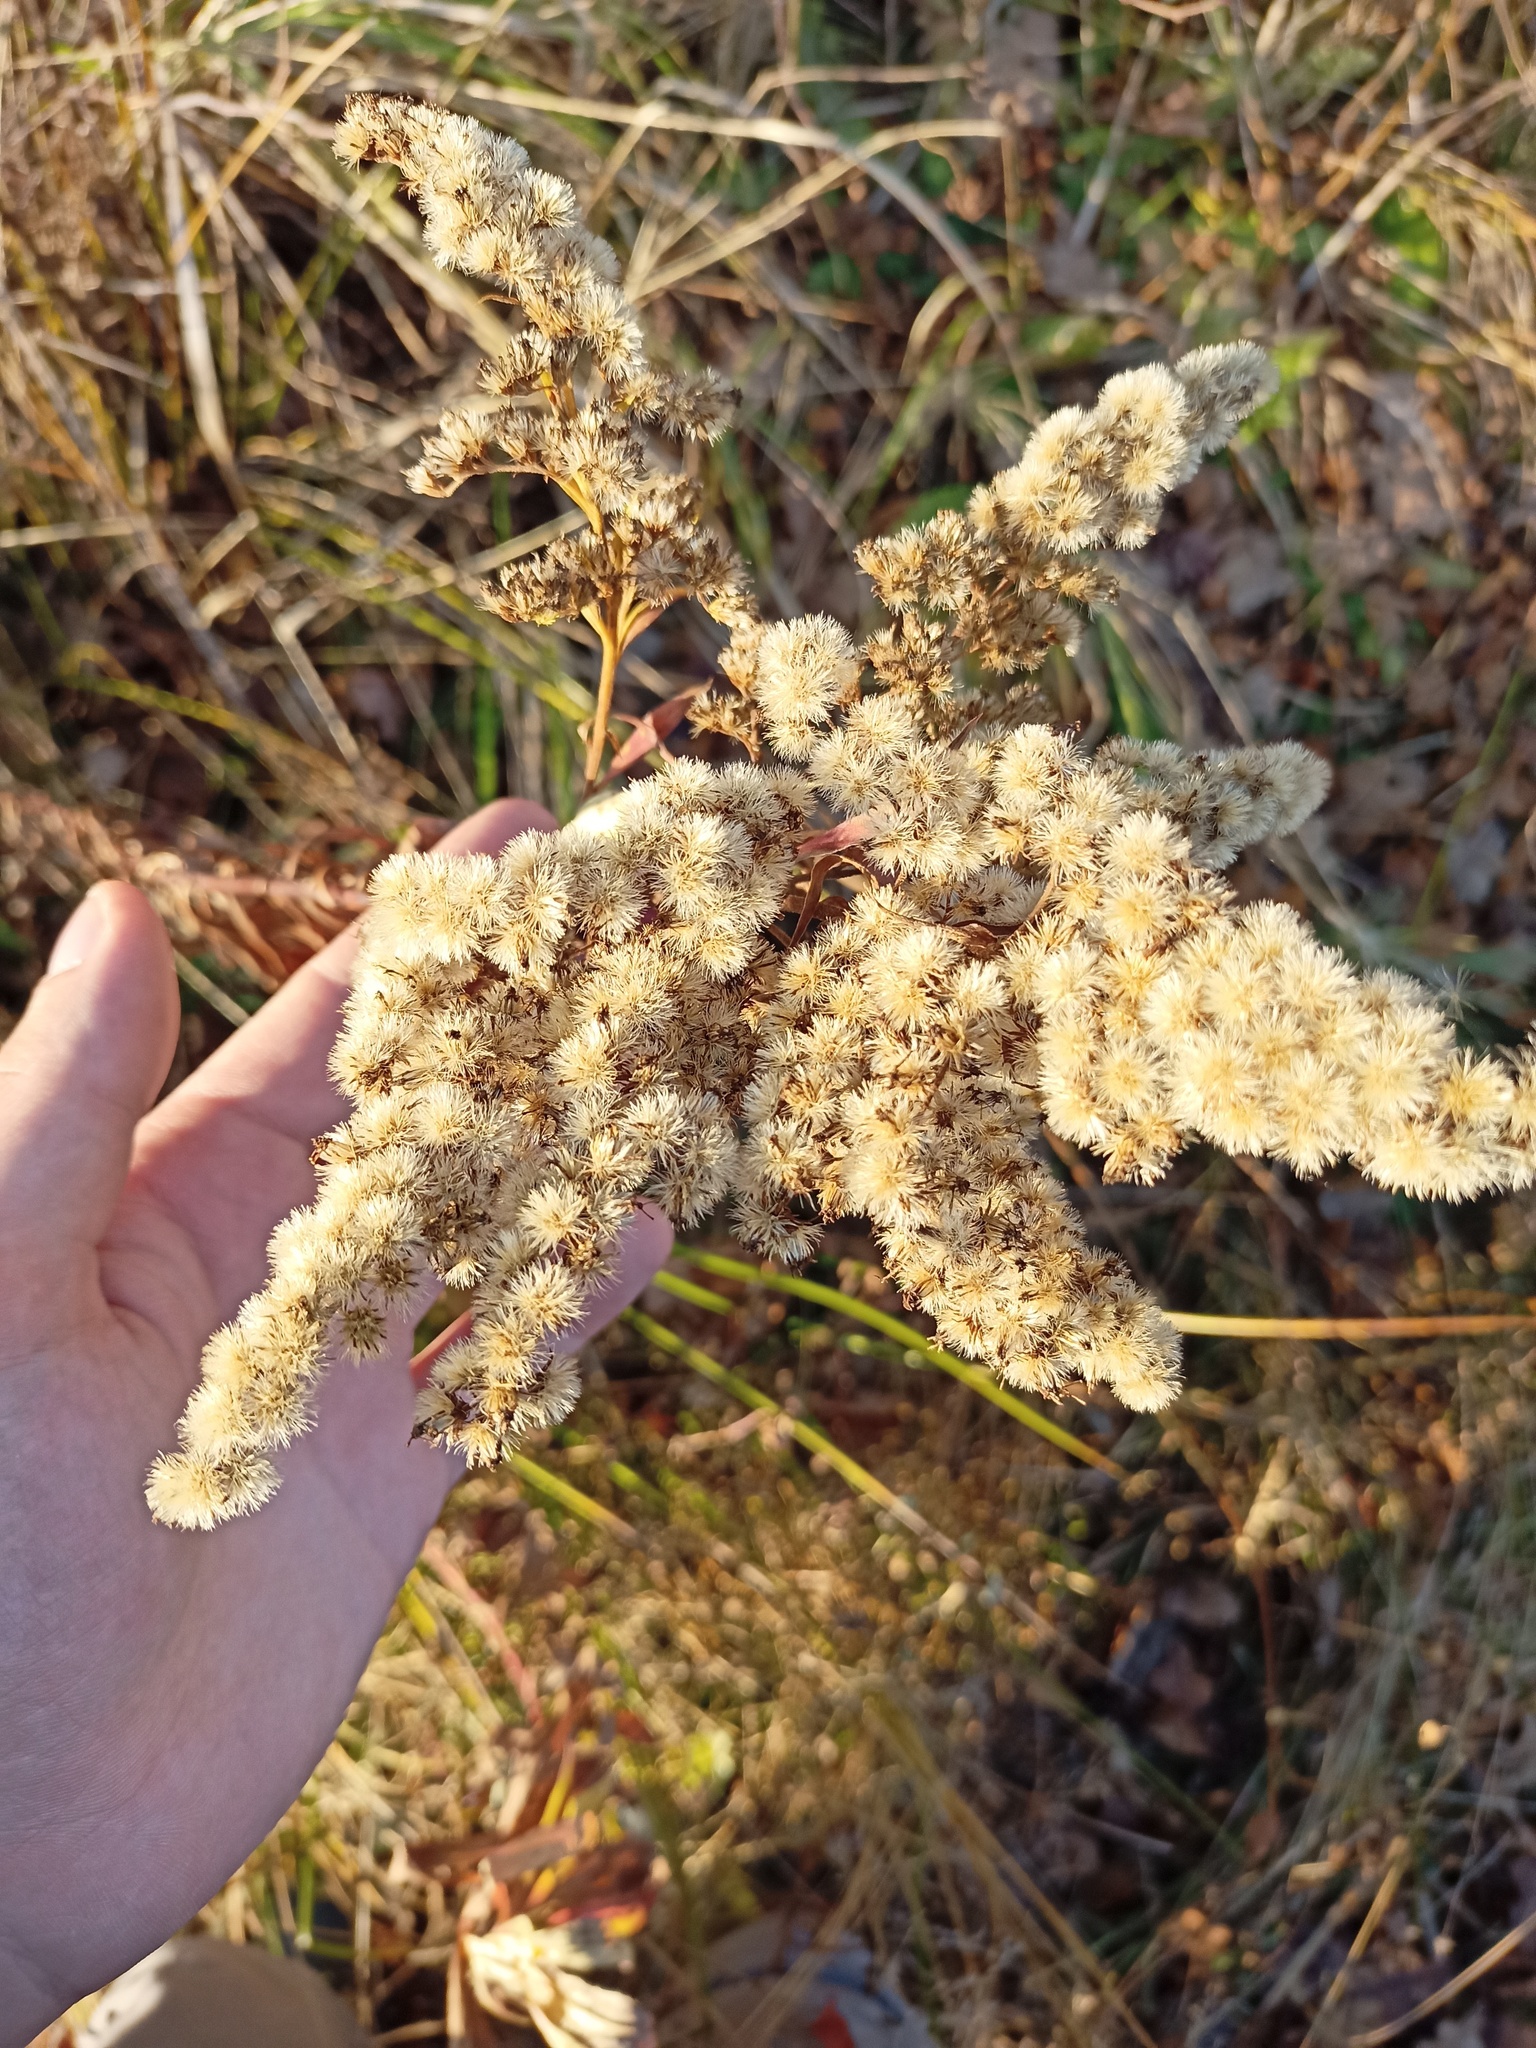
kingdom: Plantae
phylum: Tracheophyta
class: Magnoliopsida
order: Asterales
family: Asteraceae
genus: Solidago
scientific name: Solidago gigantea
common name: Giant goldenrod
